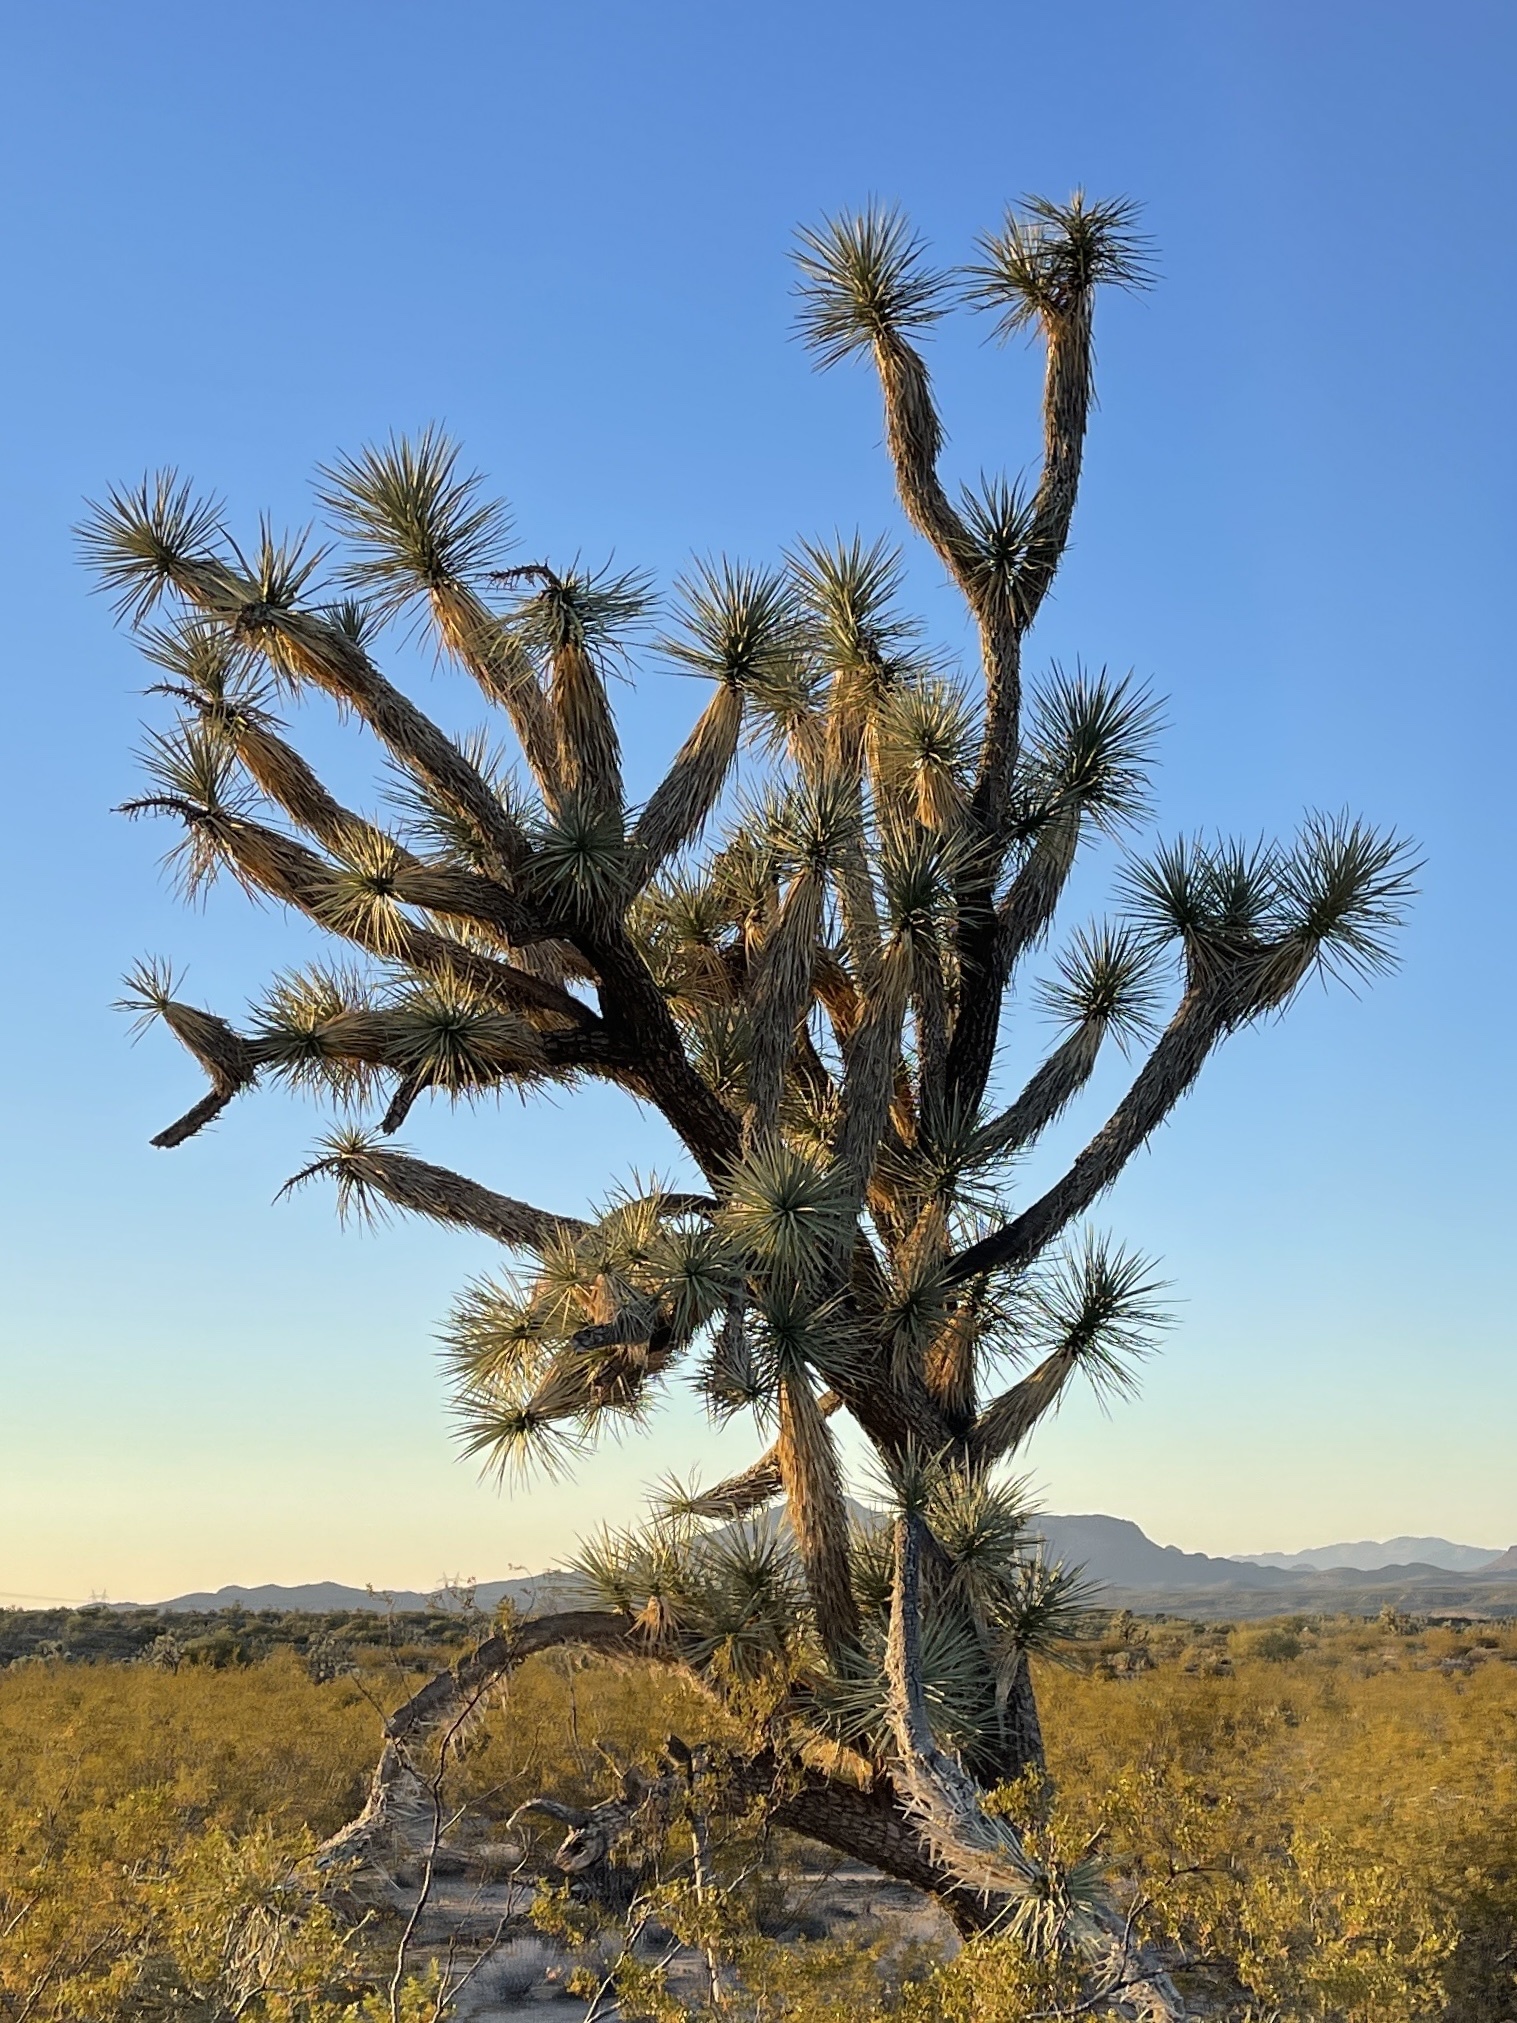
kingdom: Plantae
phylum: Tracheophyta
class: Liliopsida
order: Asparagales
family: Asparagaceae
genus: Yucca
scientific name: Yucca brevifolia
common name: Joshua tree
